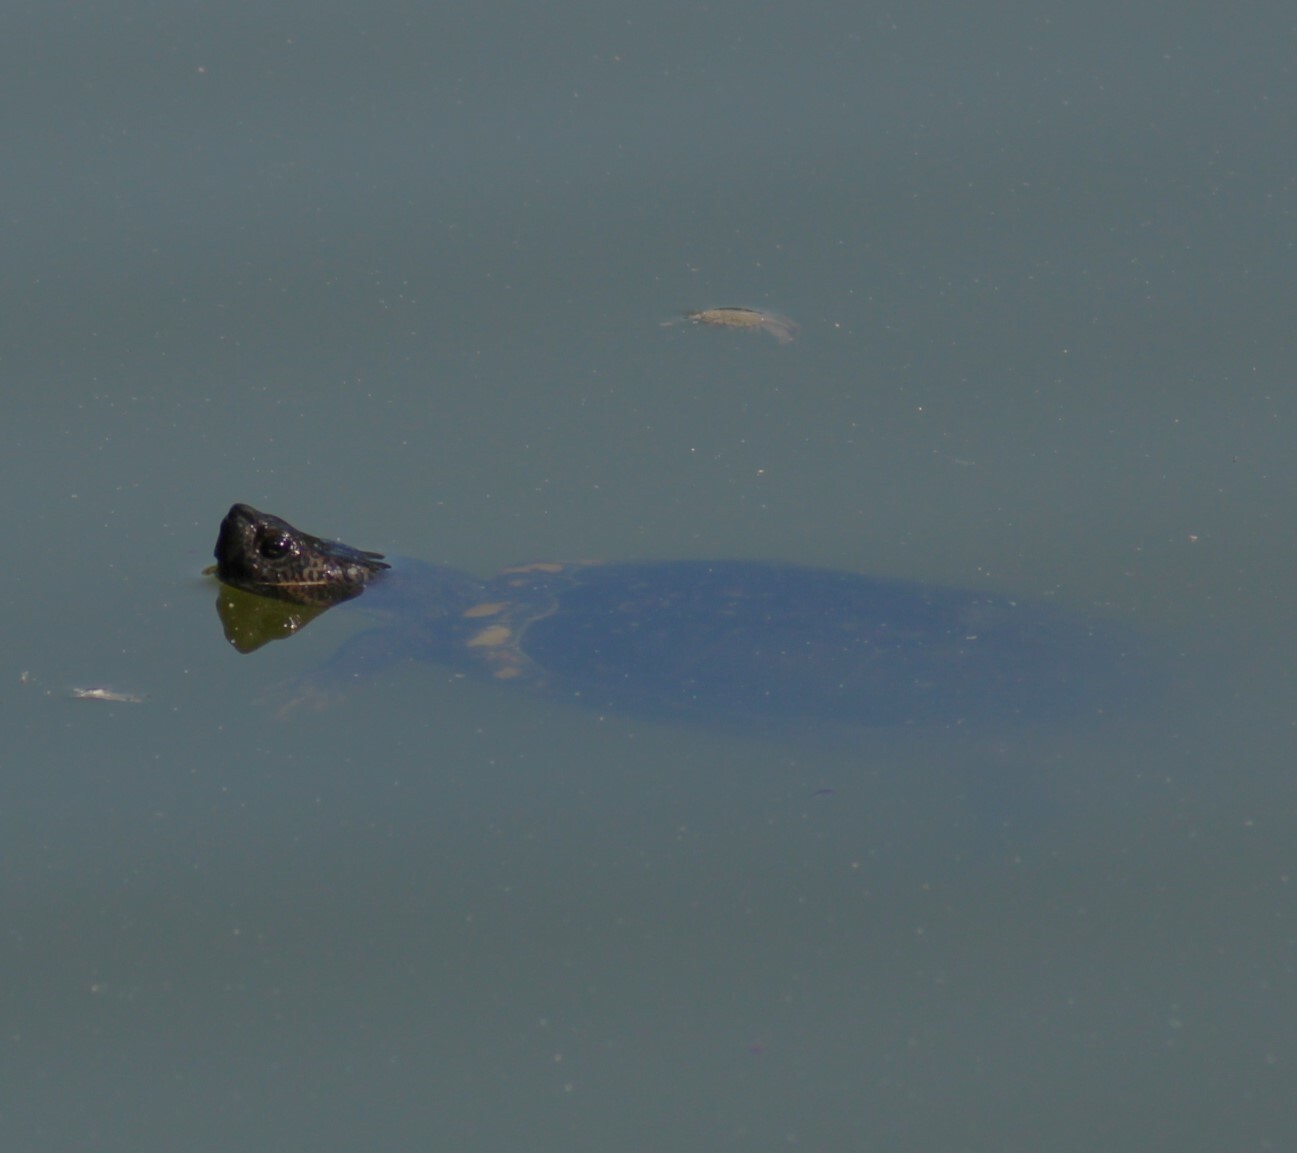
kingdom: Animalia
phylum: Chordata
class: Testudines
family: Emydidae
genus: Trachemys
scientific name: Trachemys scripta
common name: Slider
